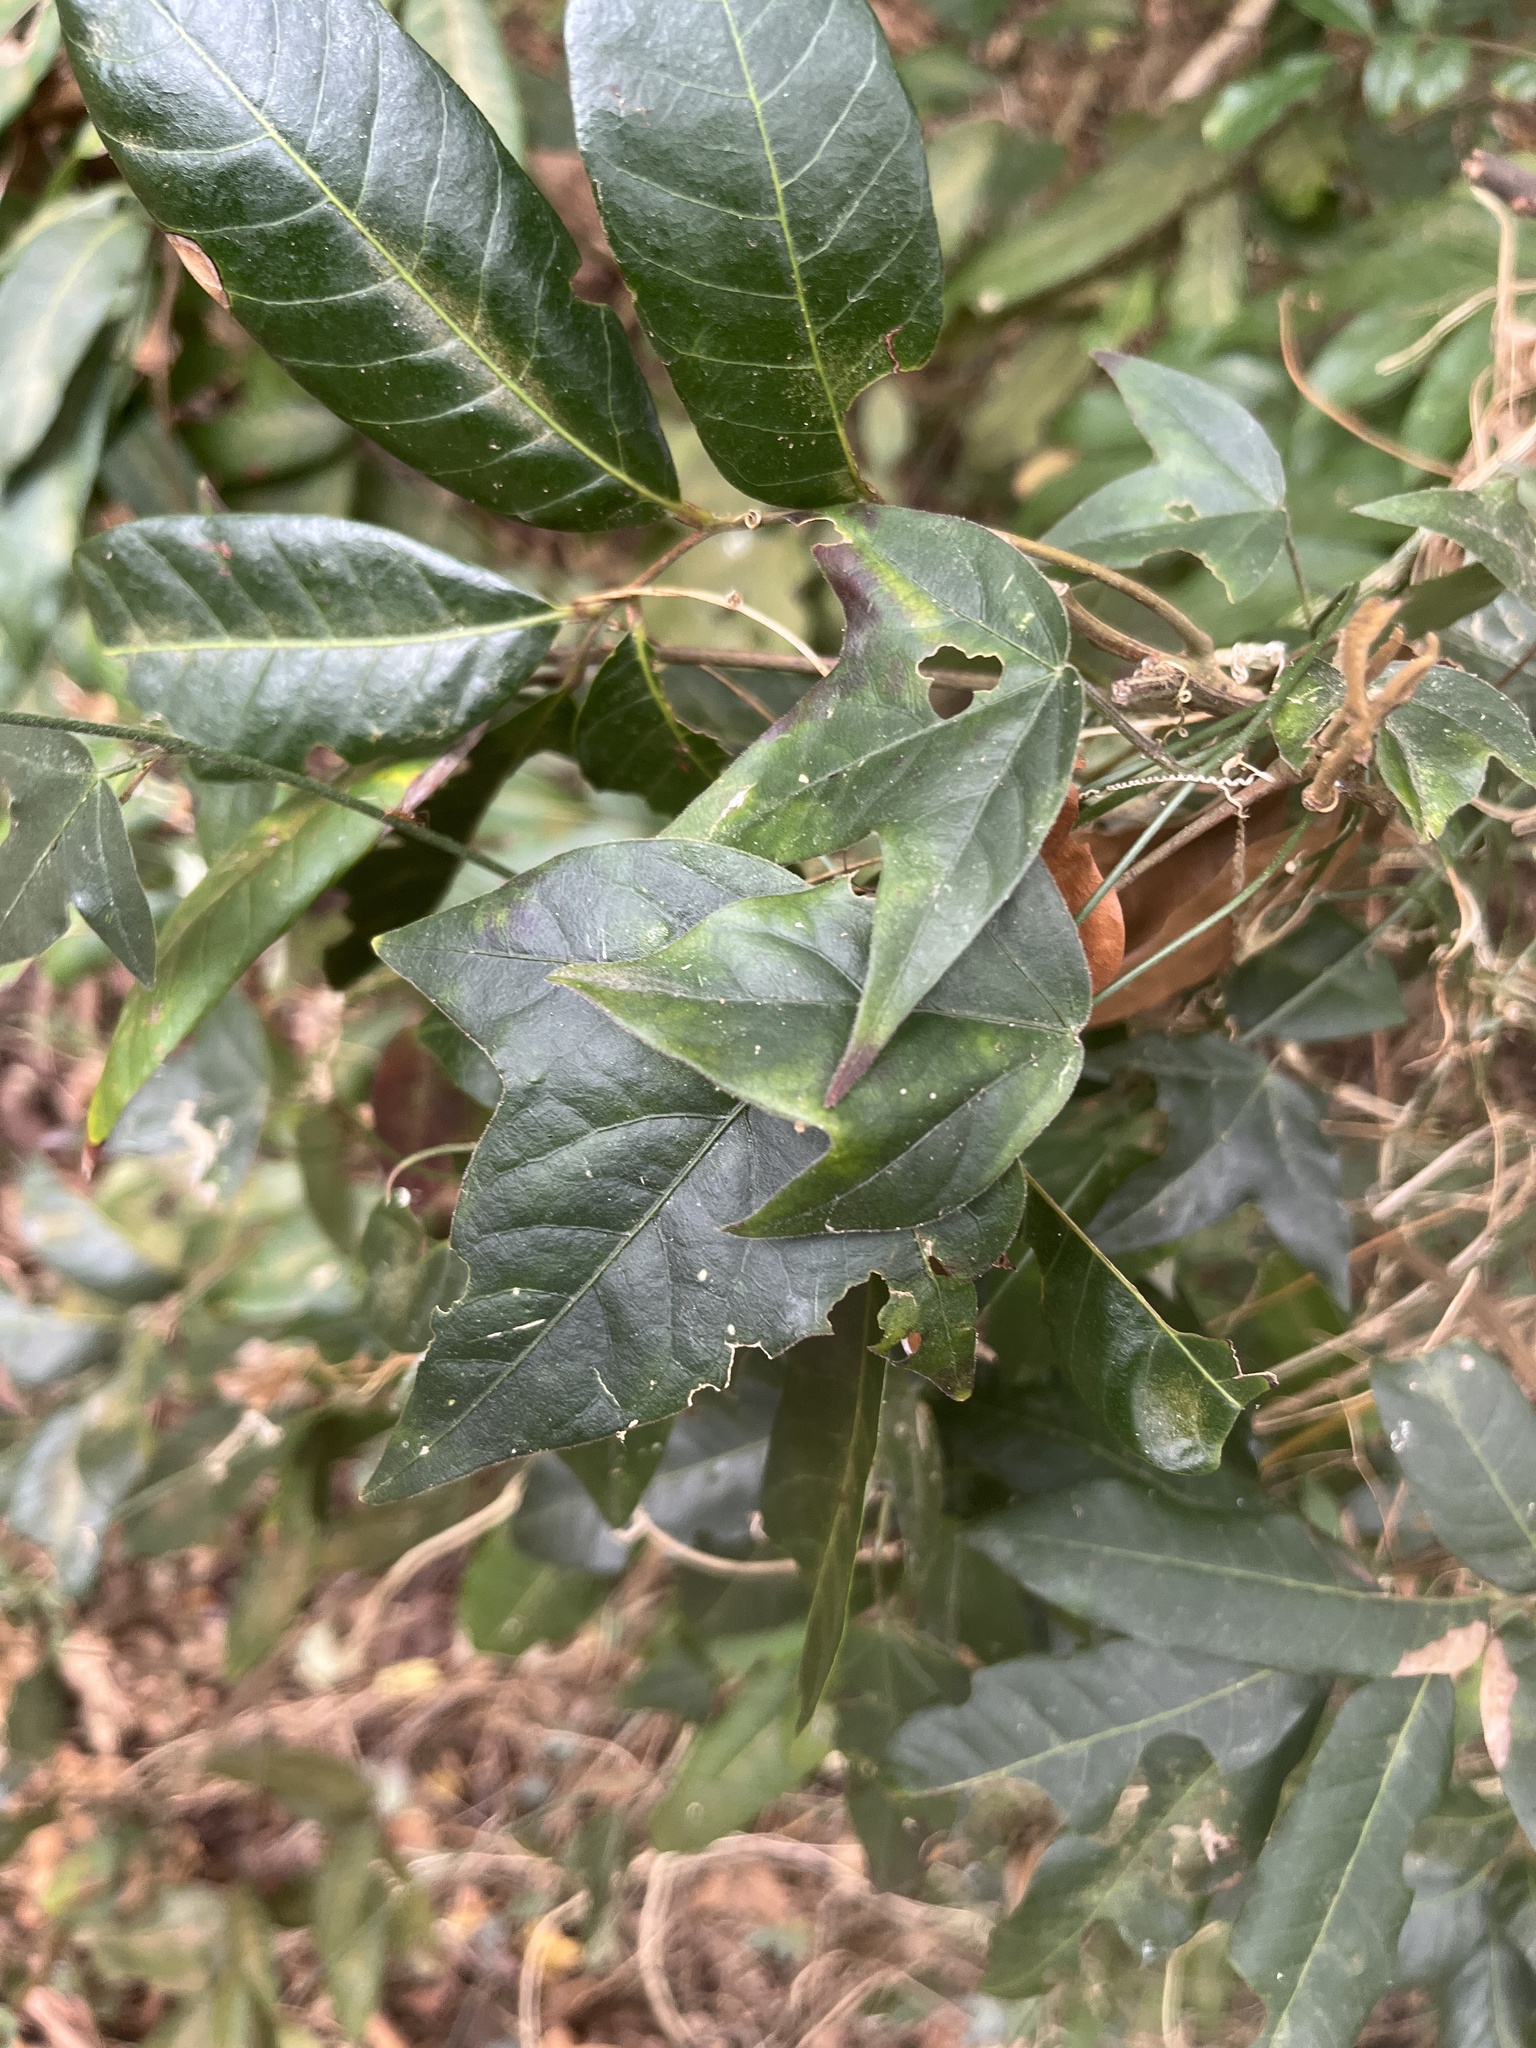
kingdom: Plantae
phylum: Tracheophyta
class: Magnoliopsida
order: Malpighiales
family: Passifloraceae
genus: Passiflora
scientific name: Passiflora suberosa
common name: Wild passionfruit
